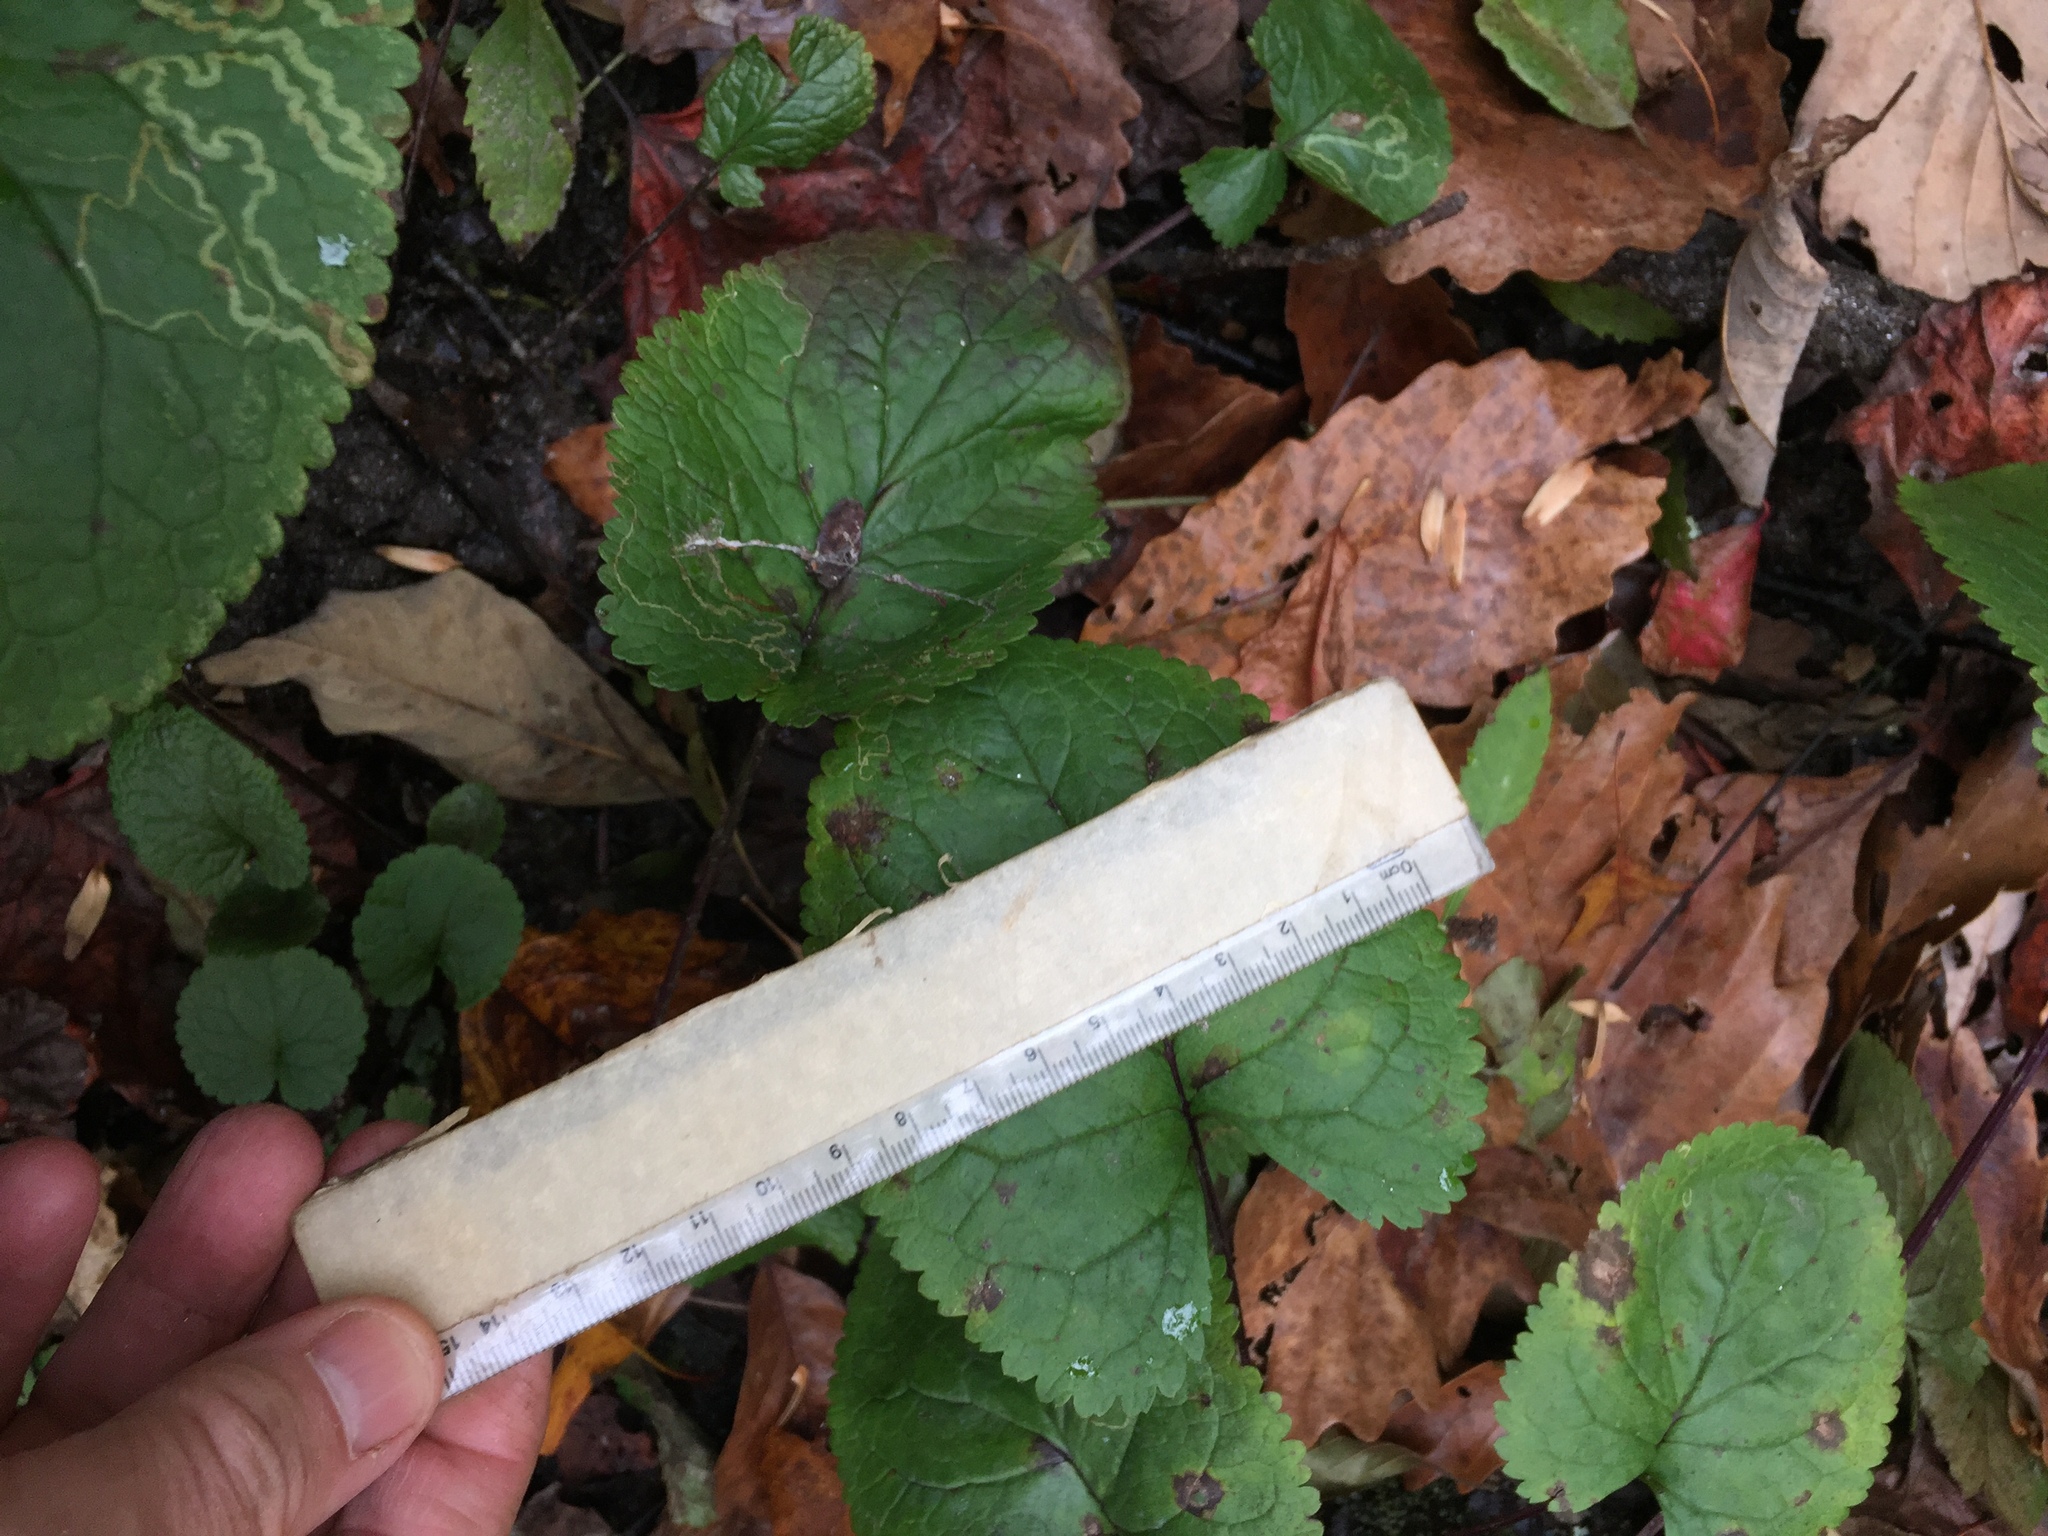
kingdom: Plantae
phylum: Tracheophyta
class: Magnoliopsida
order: Asterales
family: Asteraceae
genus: Packera
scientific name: Packera aurea
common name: Golden groundsel
